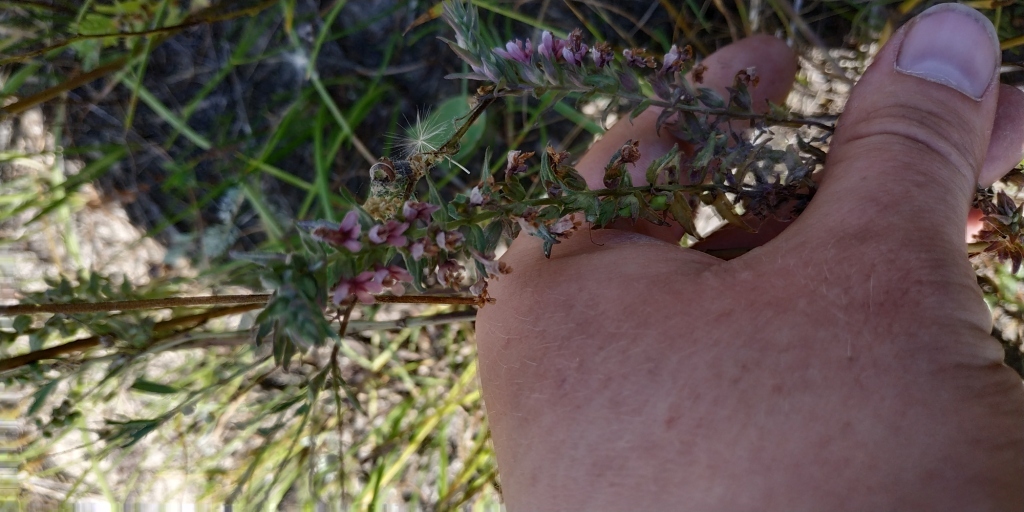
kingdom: Plantae
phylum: Tracheophyta
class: Magnoliopsida
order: Lamiales
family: Orobanchaceae
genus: Odontites
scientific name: Odontites vulgaris
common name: Broomrape
